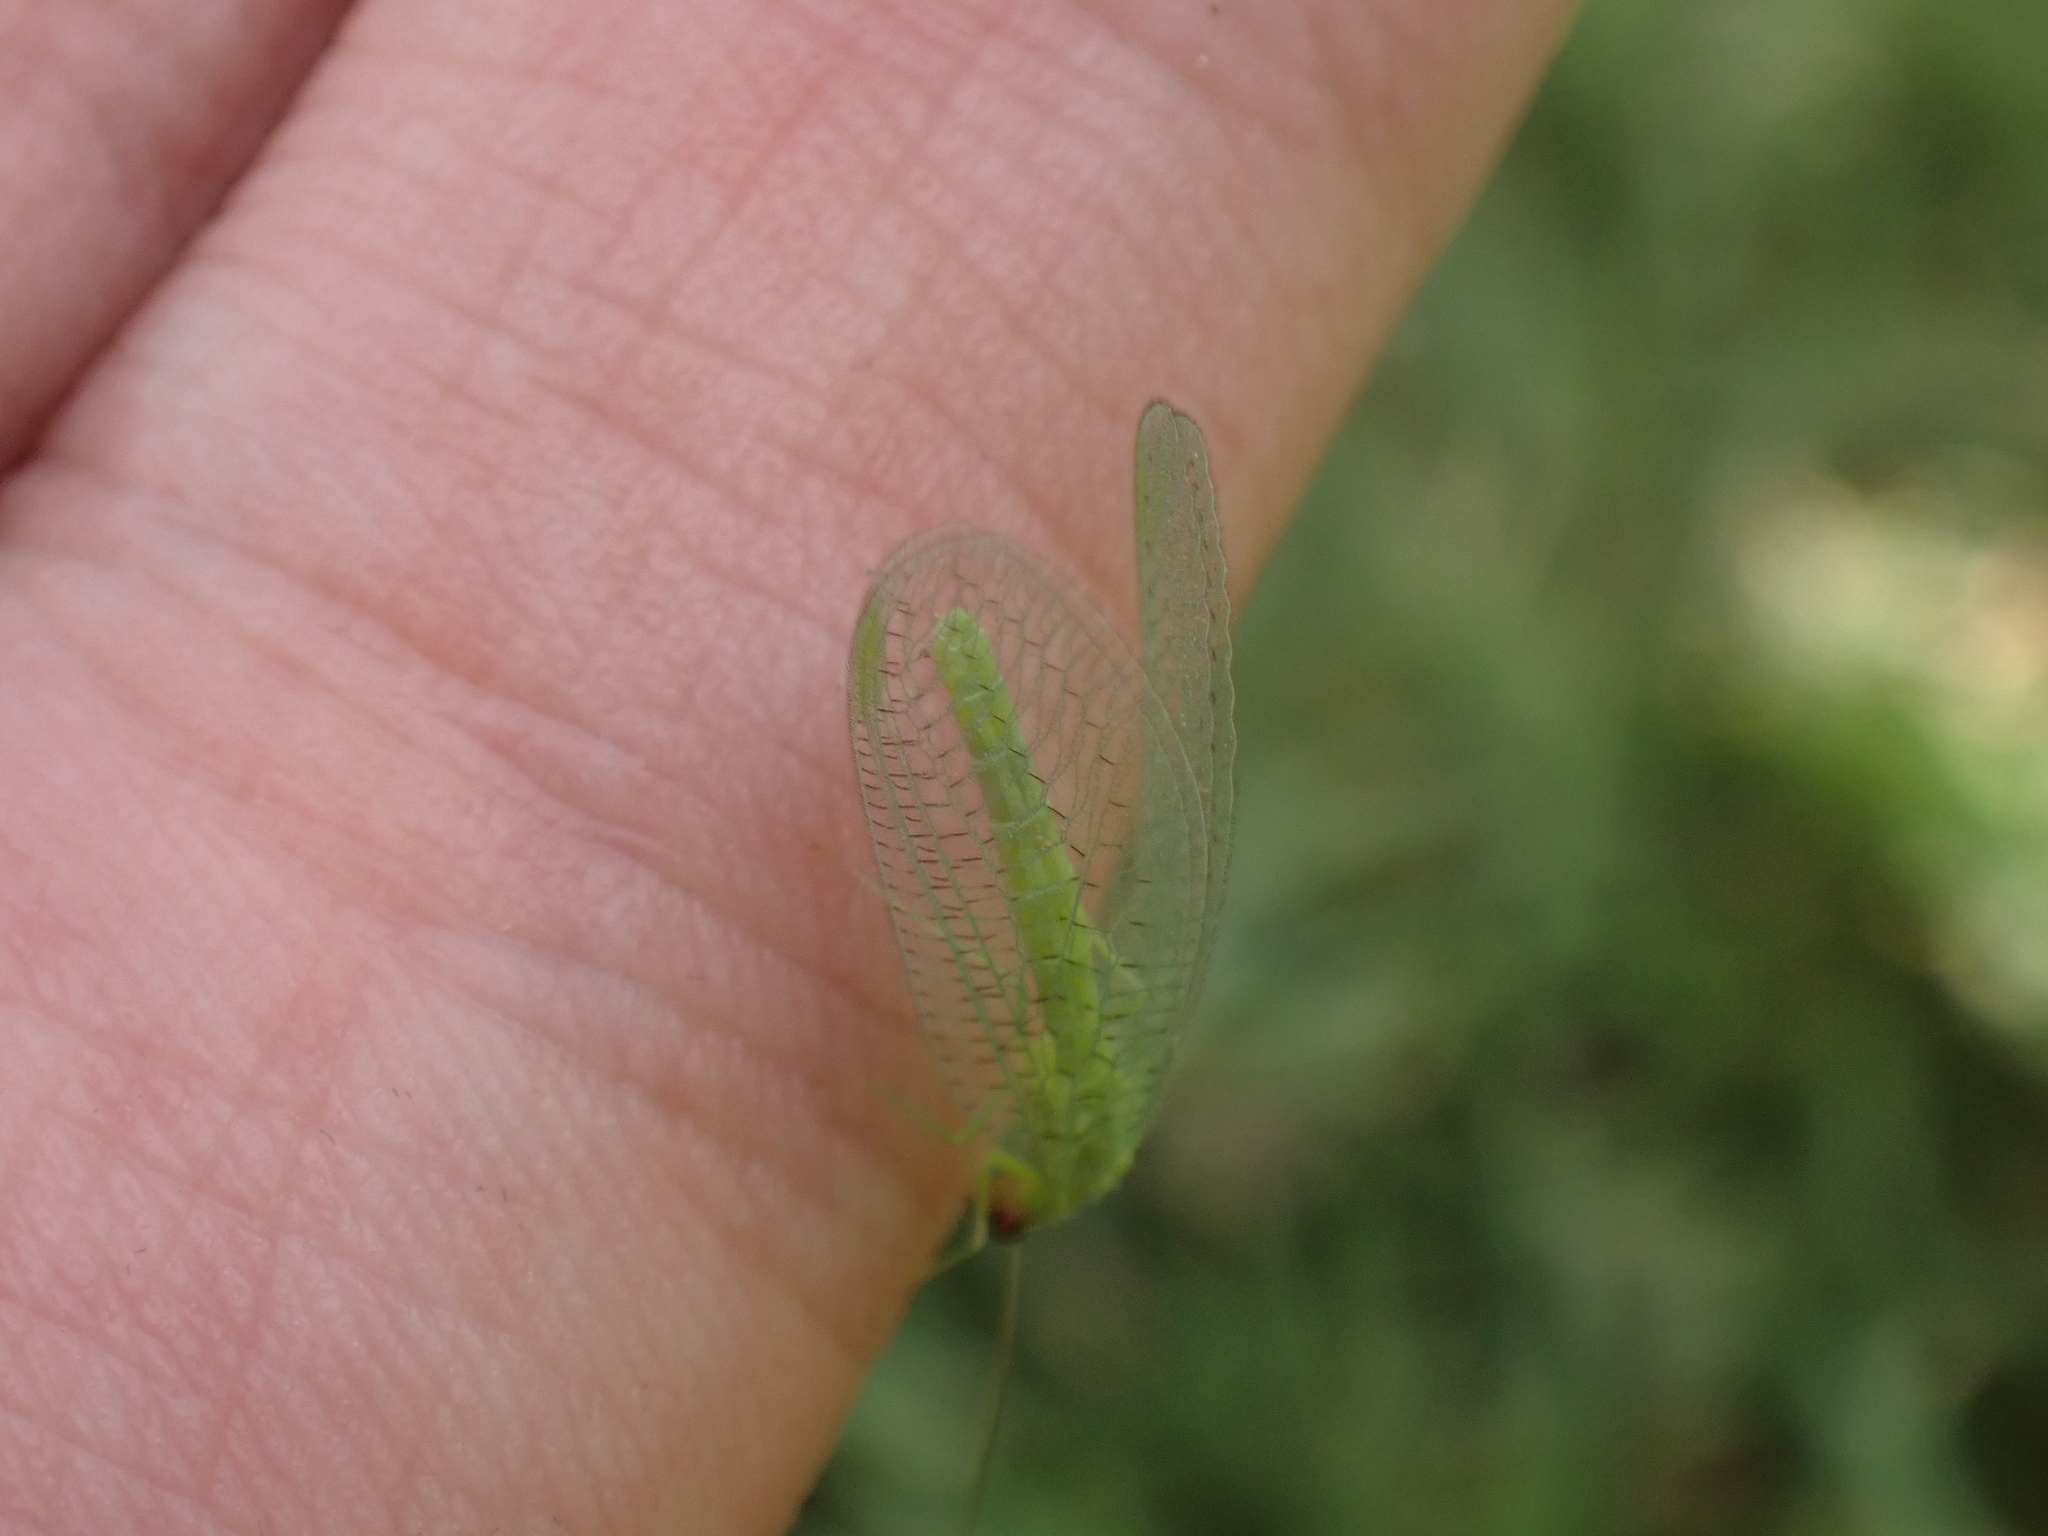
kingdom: Animalia
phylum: Arthropoda
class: Insecta
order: Neuroptera
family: Chrysopidae
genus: Chrysopa
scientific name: Chrysopa oculata
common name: Golden-eyed lacewing
